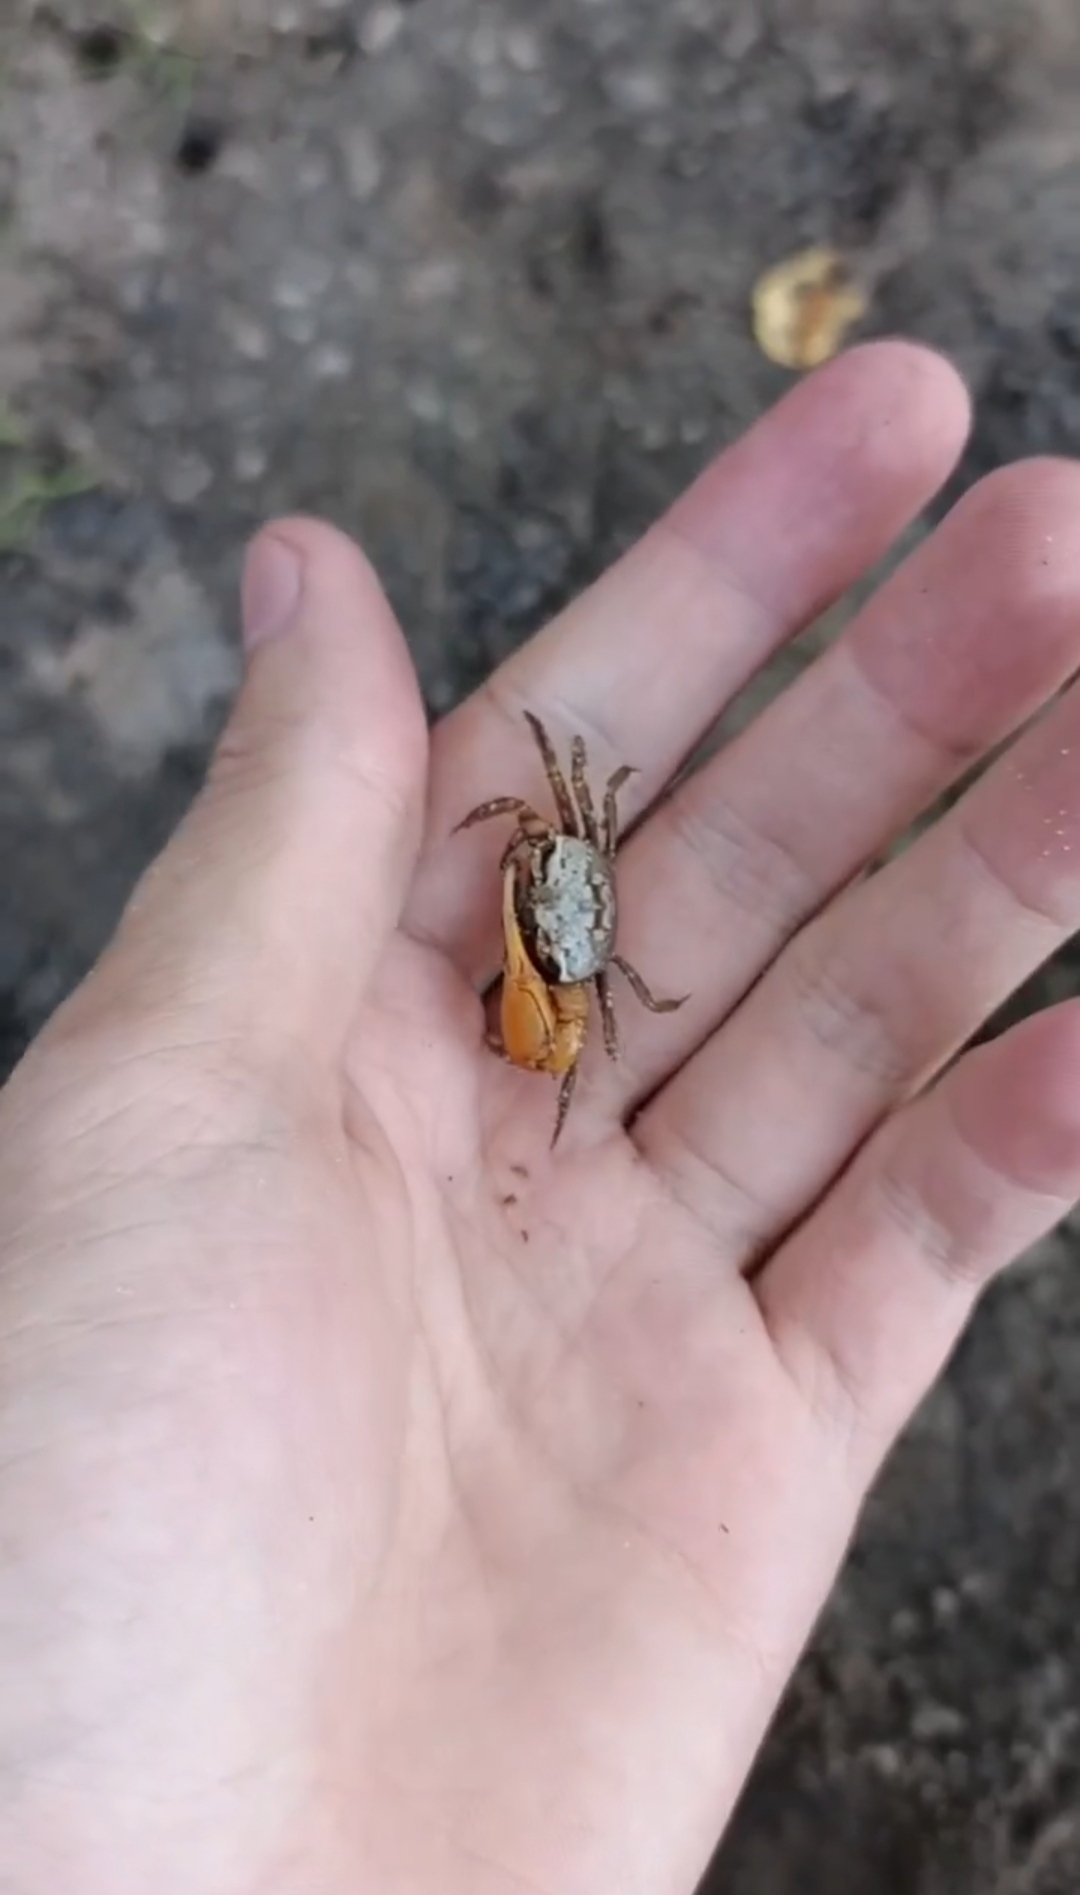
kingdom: Animalia
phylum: Arthropoda
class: Malacostraca
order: Decapoda
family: Ocypodidae
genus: Minuca
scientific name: Minuca
